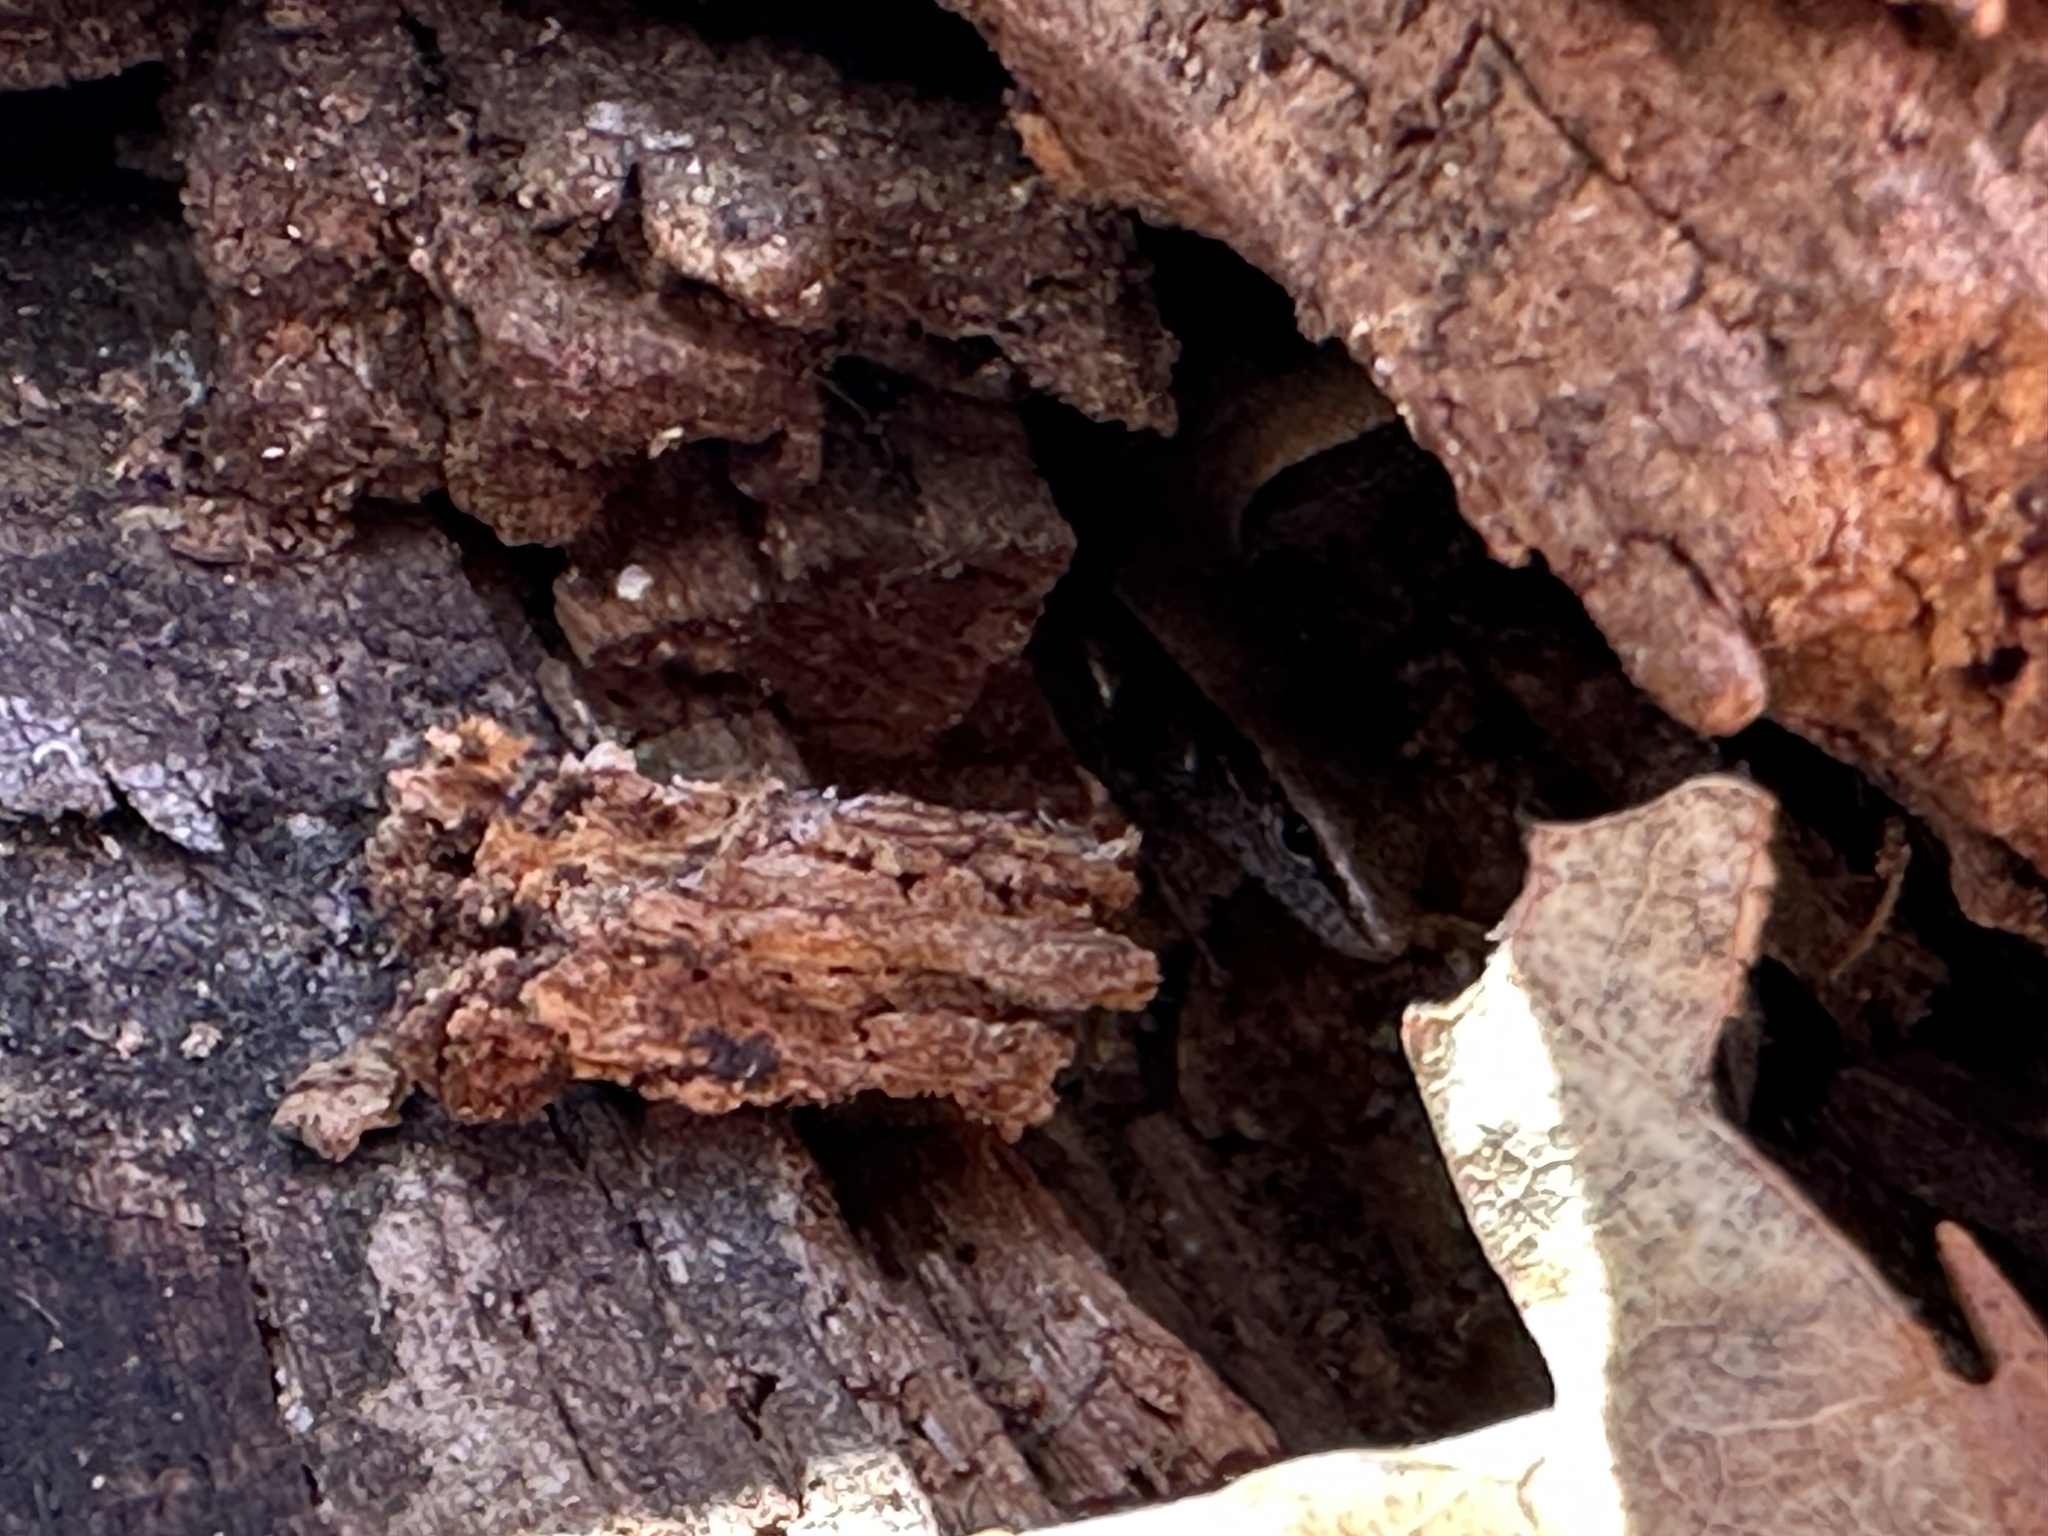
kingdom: Animalia
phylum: Chordata
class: Squamata
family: Scincidae
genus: Scincella
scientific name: Scincella lateralis
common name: Ground skink
